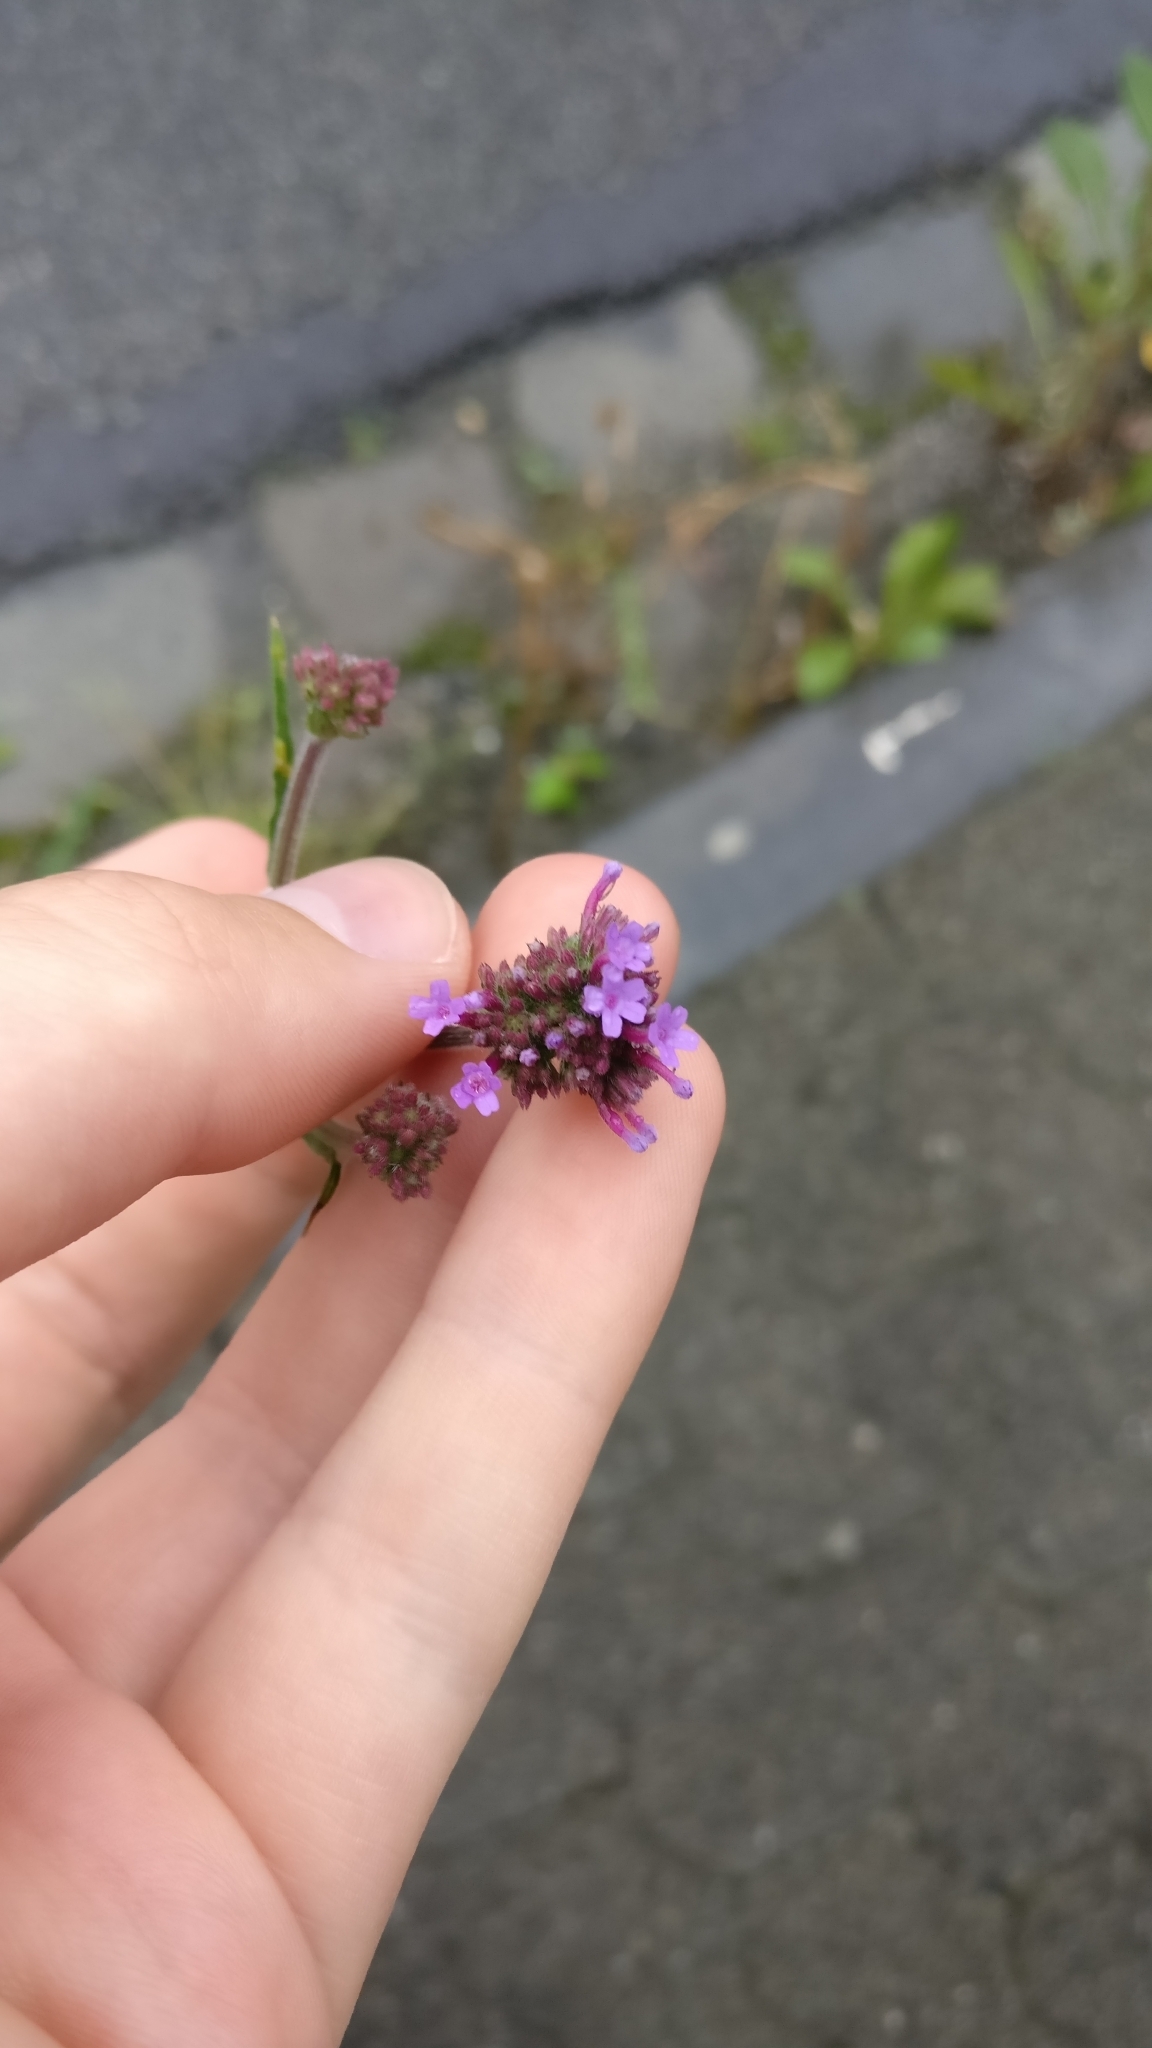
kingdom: Plantae
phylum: Tracheophyta
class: Magnoliopsida
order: Lamiales
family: Verbenaceae
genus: Verbena
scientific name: Verbena bonariensis
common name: Purpletop vervain
